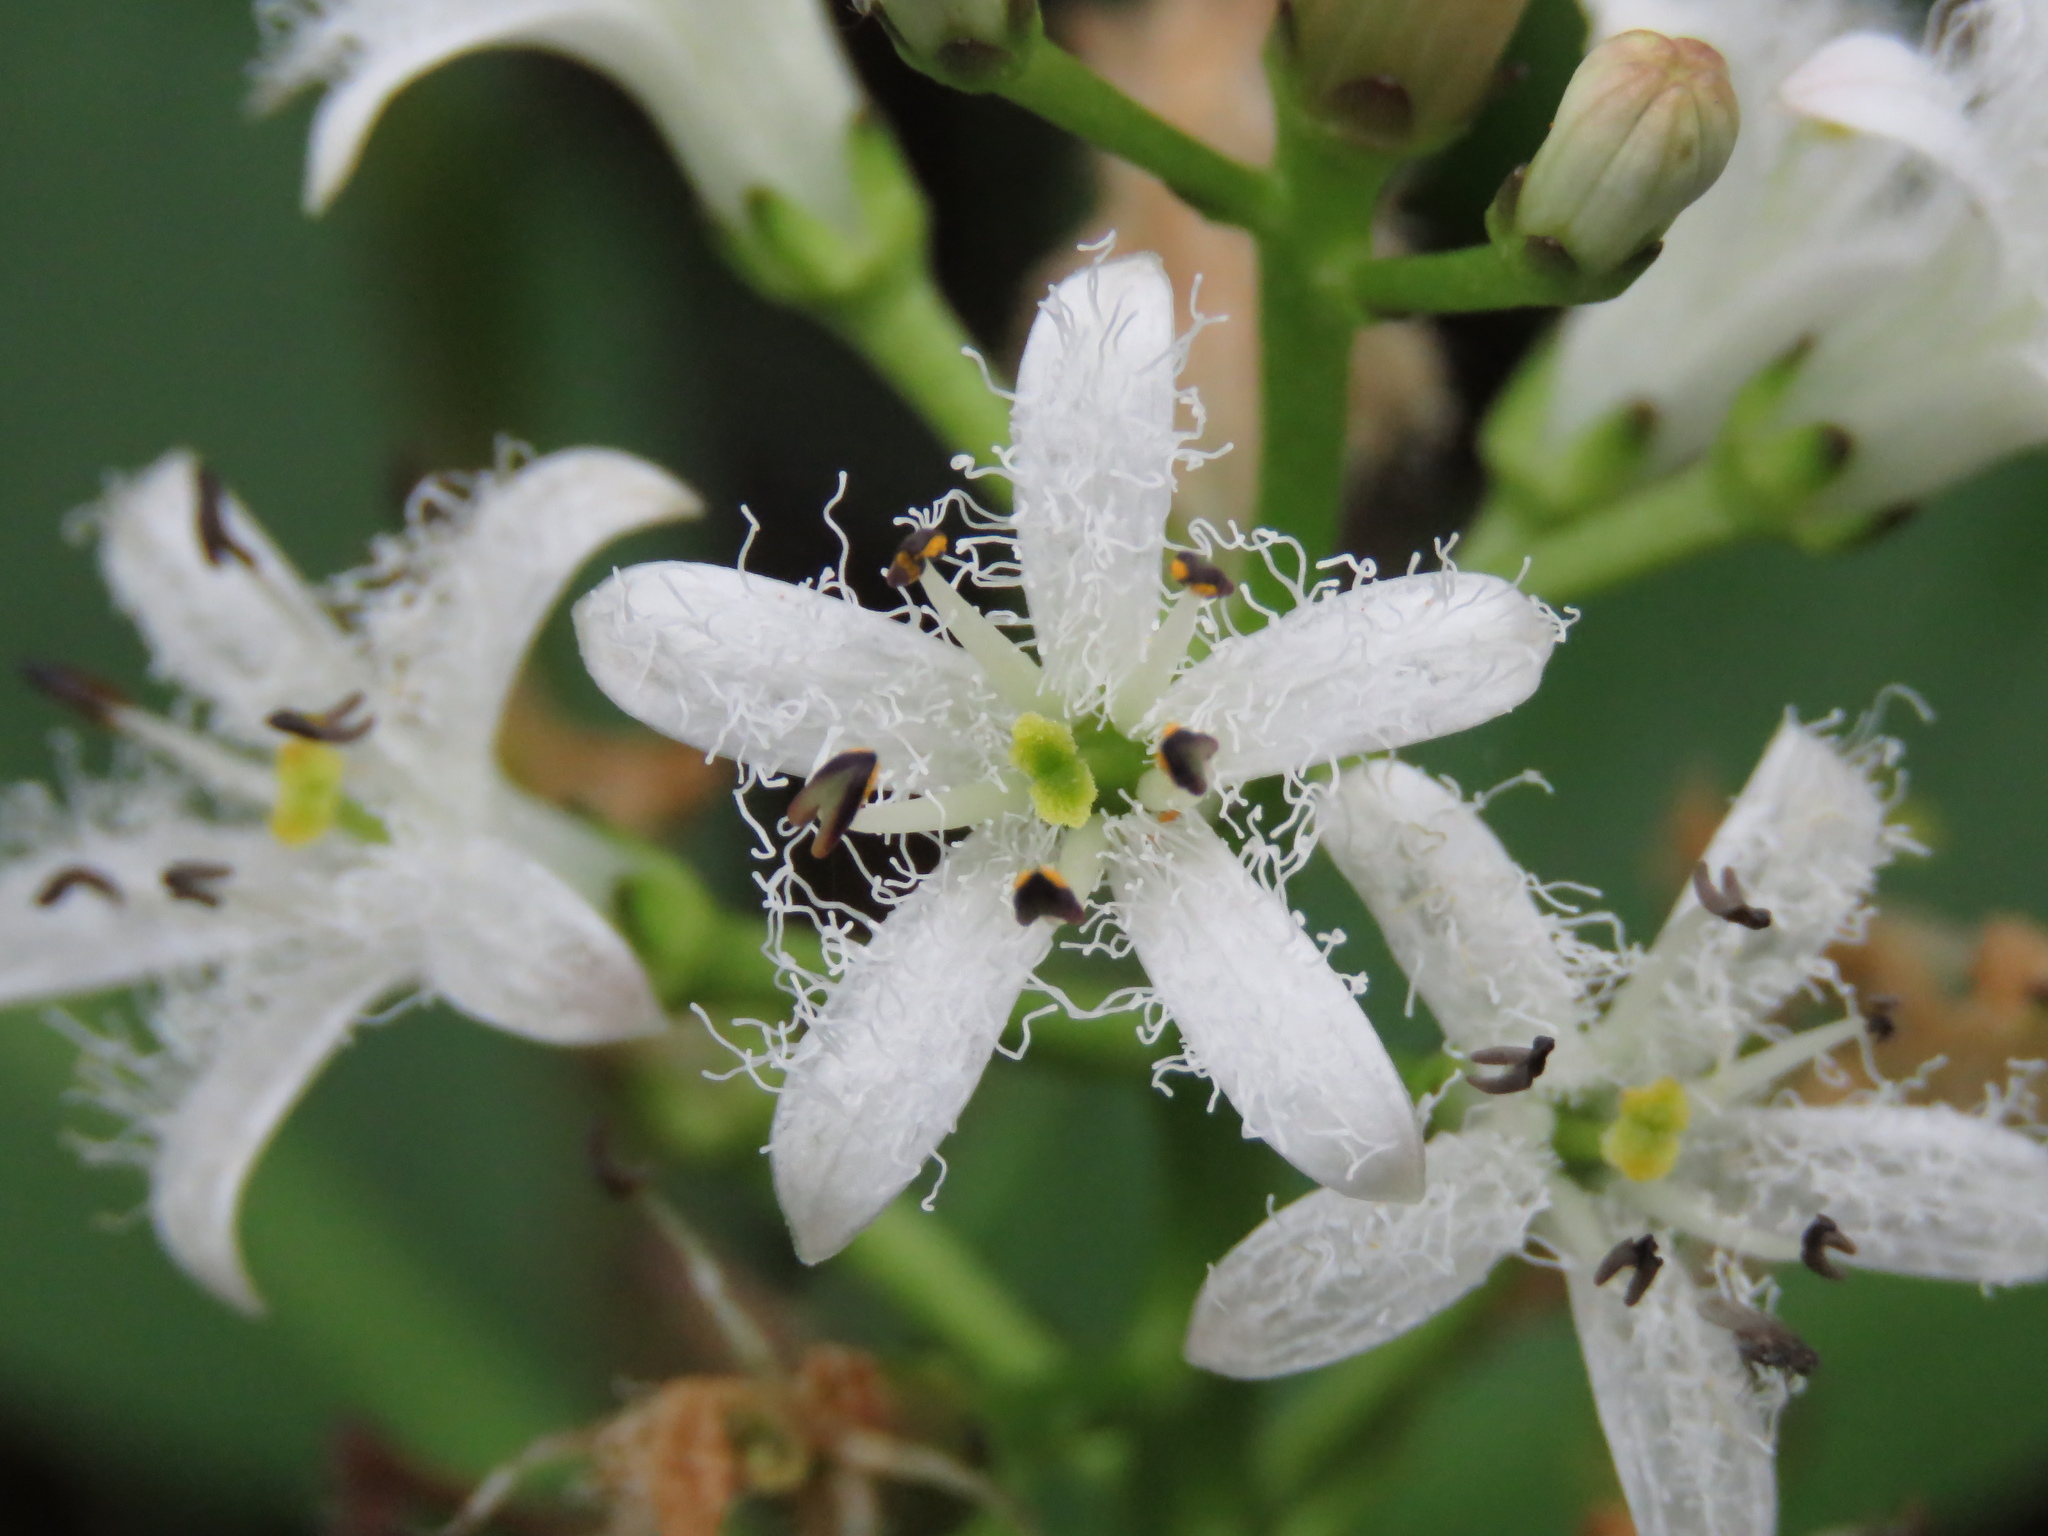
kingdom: Plantae
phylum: Tracheophyta
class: Magnoliopsida
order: Asterales
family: Menyanthaceae
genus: Menyanthes
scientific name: Menyanthes trifoliata
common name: Bogbean
